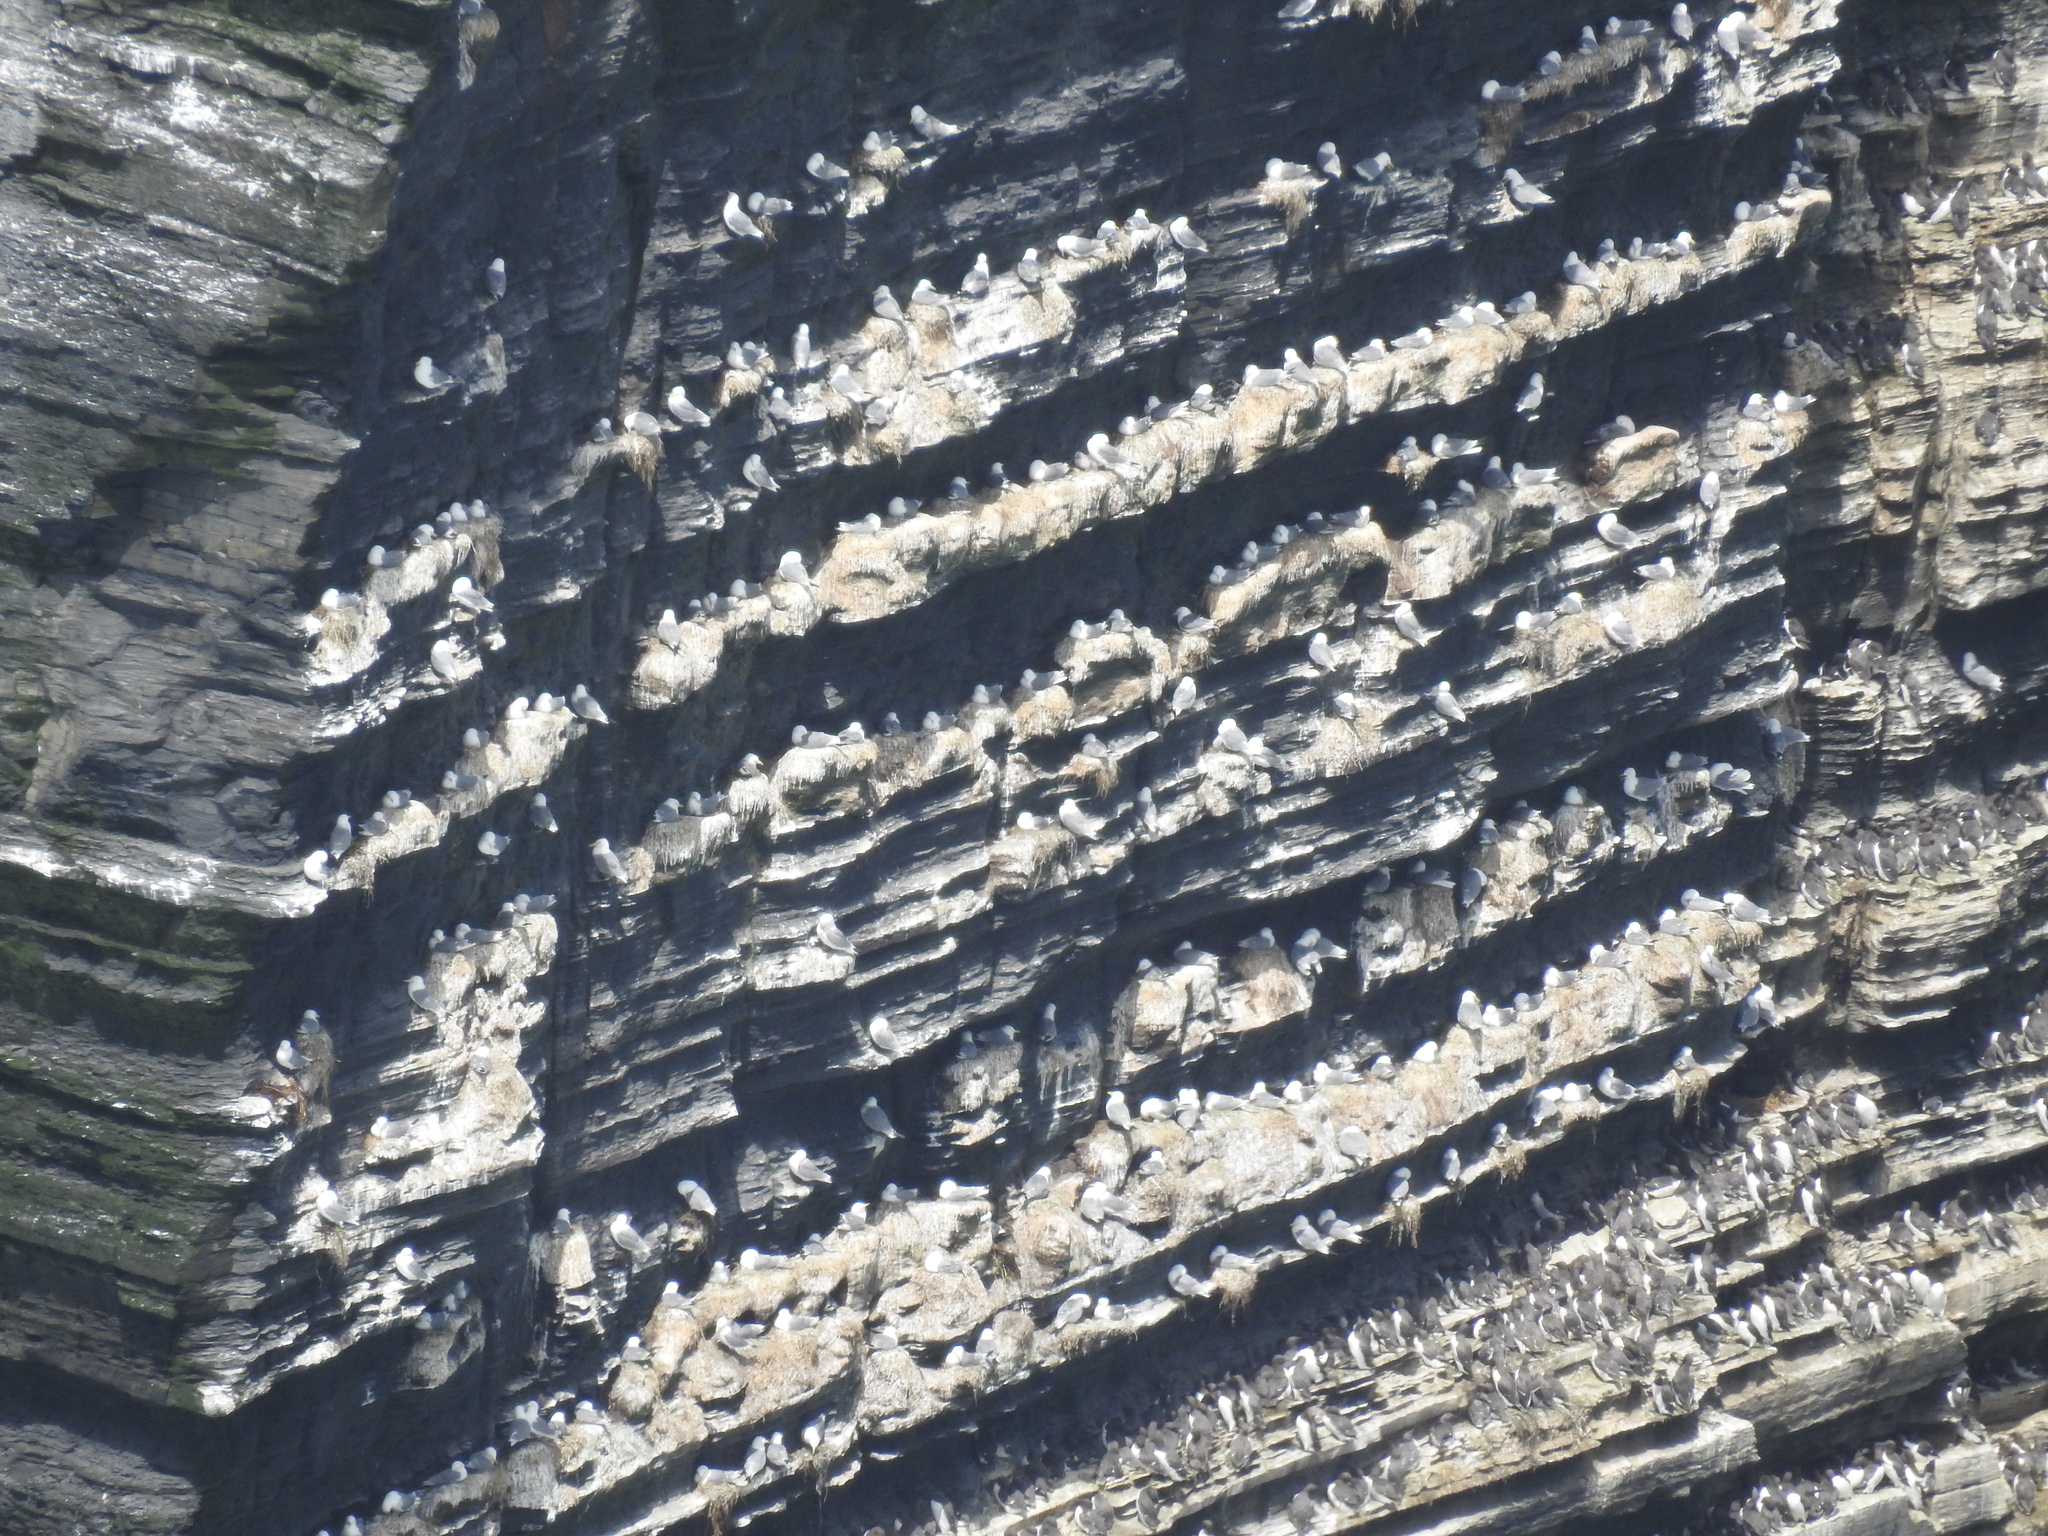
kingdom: Animalia
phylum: Chordata
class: Aves
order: Charadriiformes
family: Laridae
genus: Rissa
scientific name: Rissa tridactyla
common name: Black-legged kittiwake
